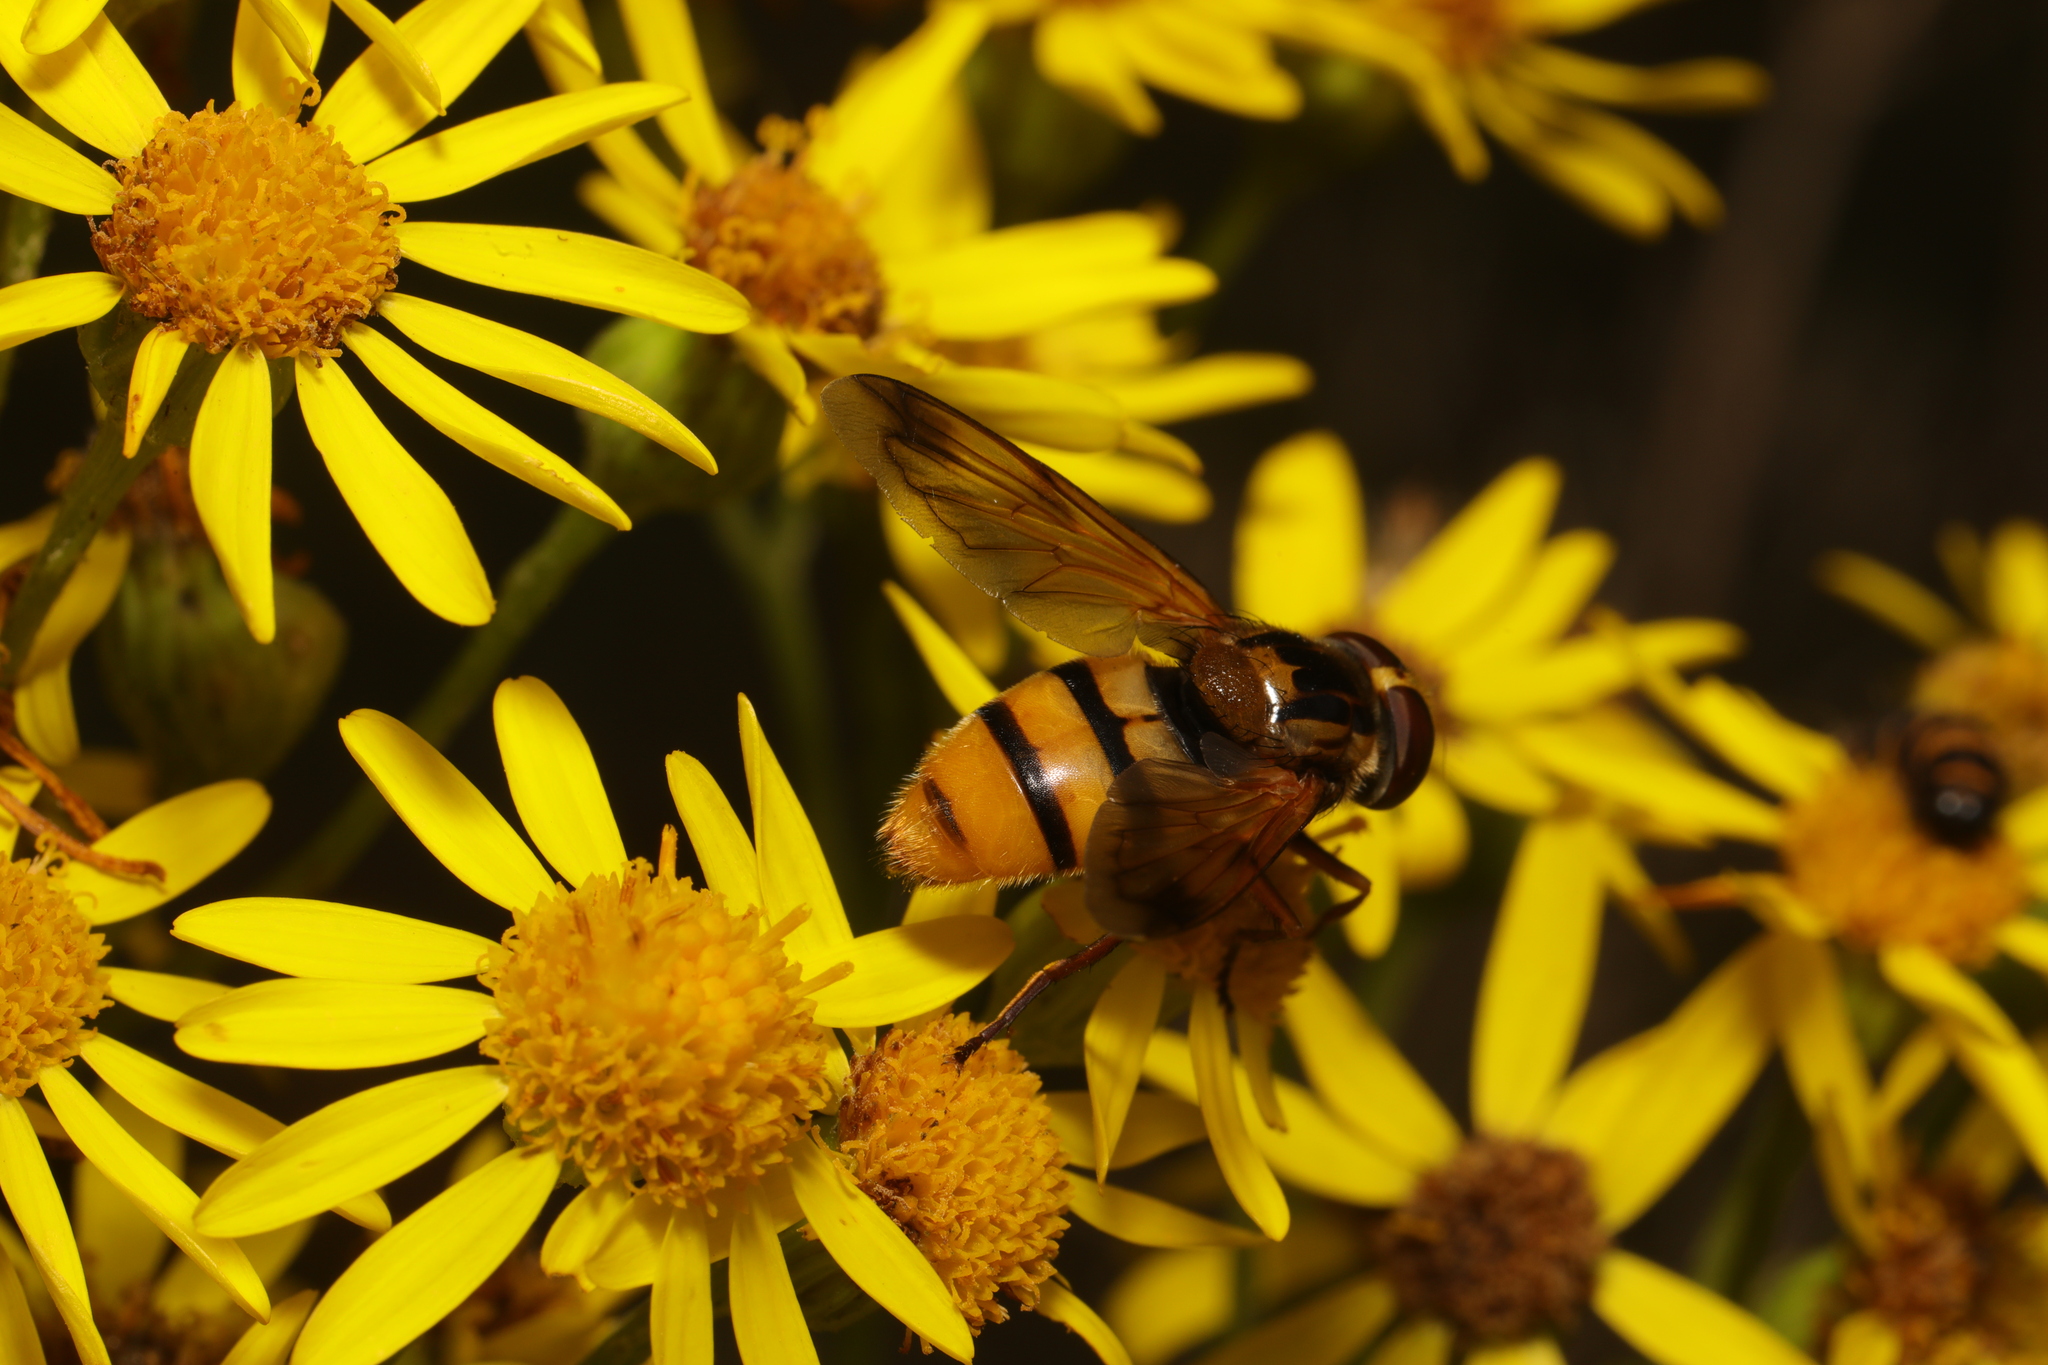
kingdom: Animalia
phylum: Arthropoda
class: Insecta
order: Diptera
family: Syrphidae
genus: Volucella
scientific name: Volucella inanis
